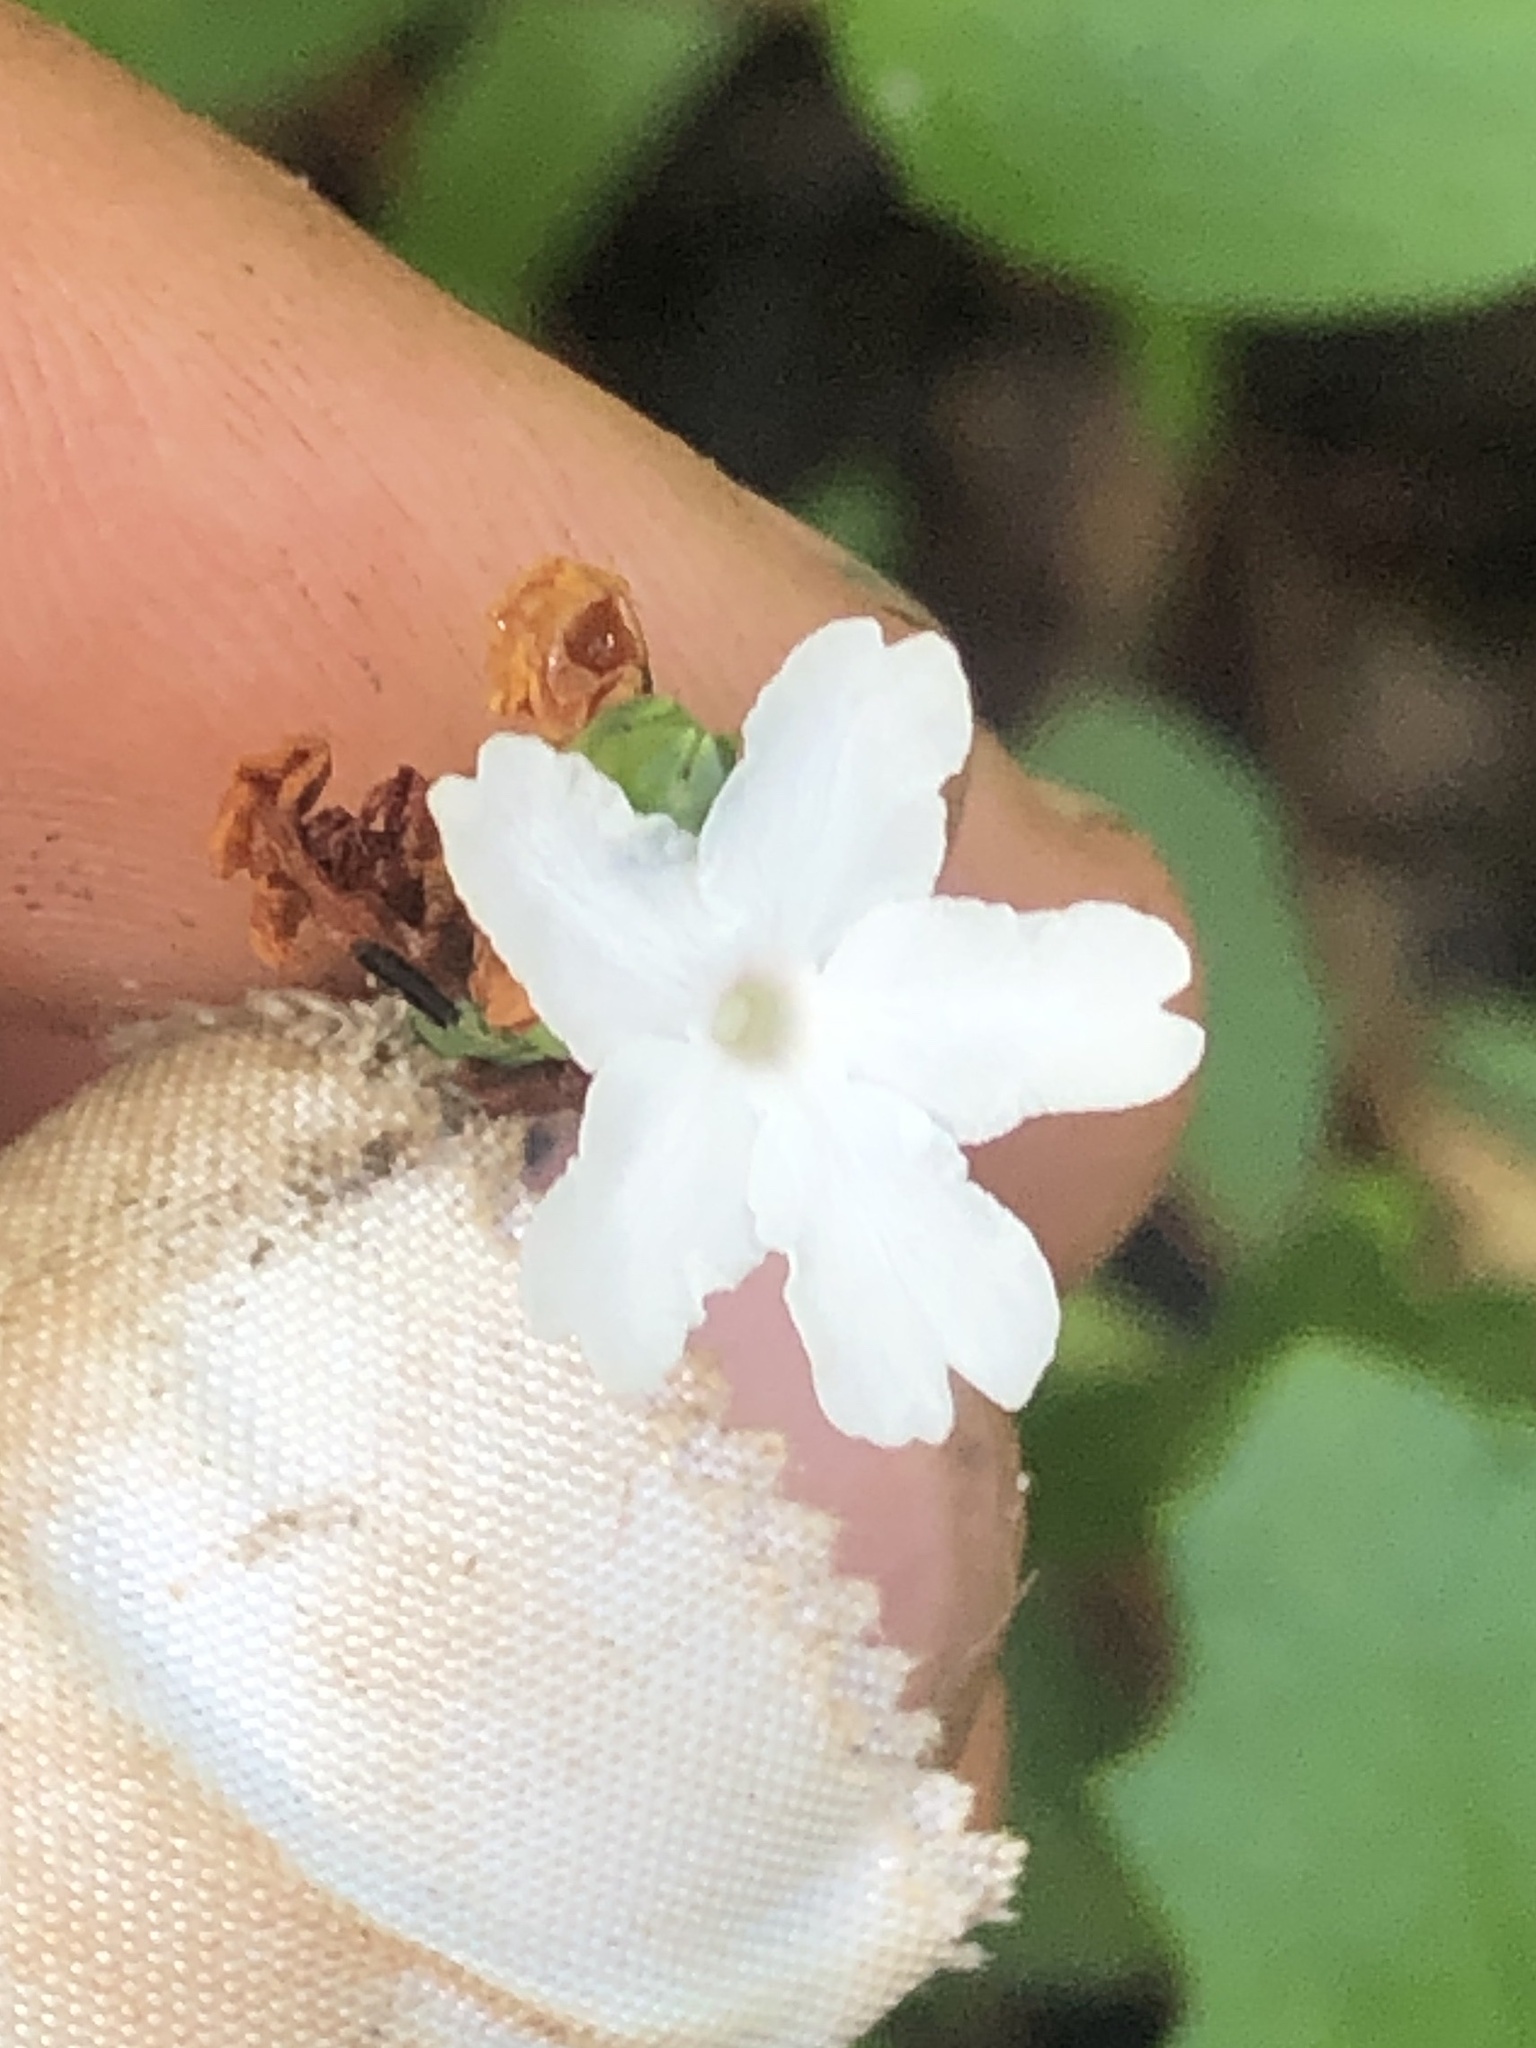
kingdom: Plantae
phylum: Tracheophyta
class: Magnoliopsida
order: Lamiales
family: Acanthaceae
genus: Elytraria
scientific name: Elytraria caroliniensis
